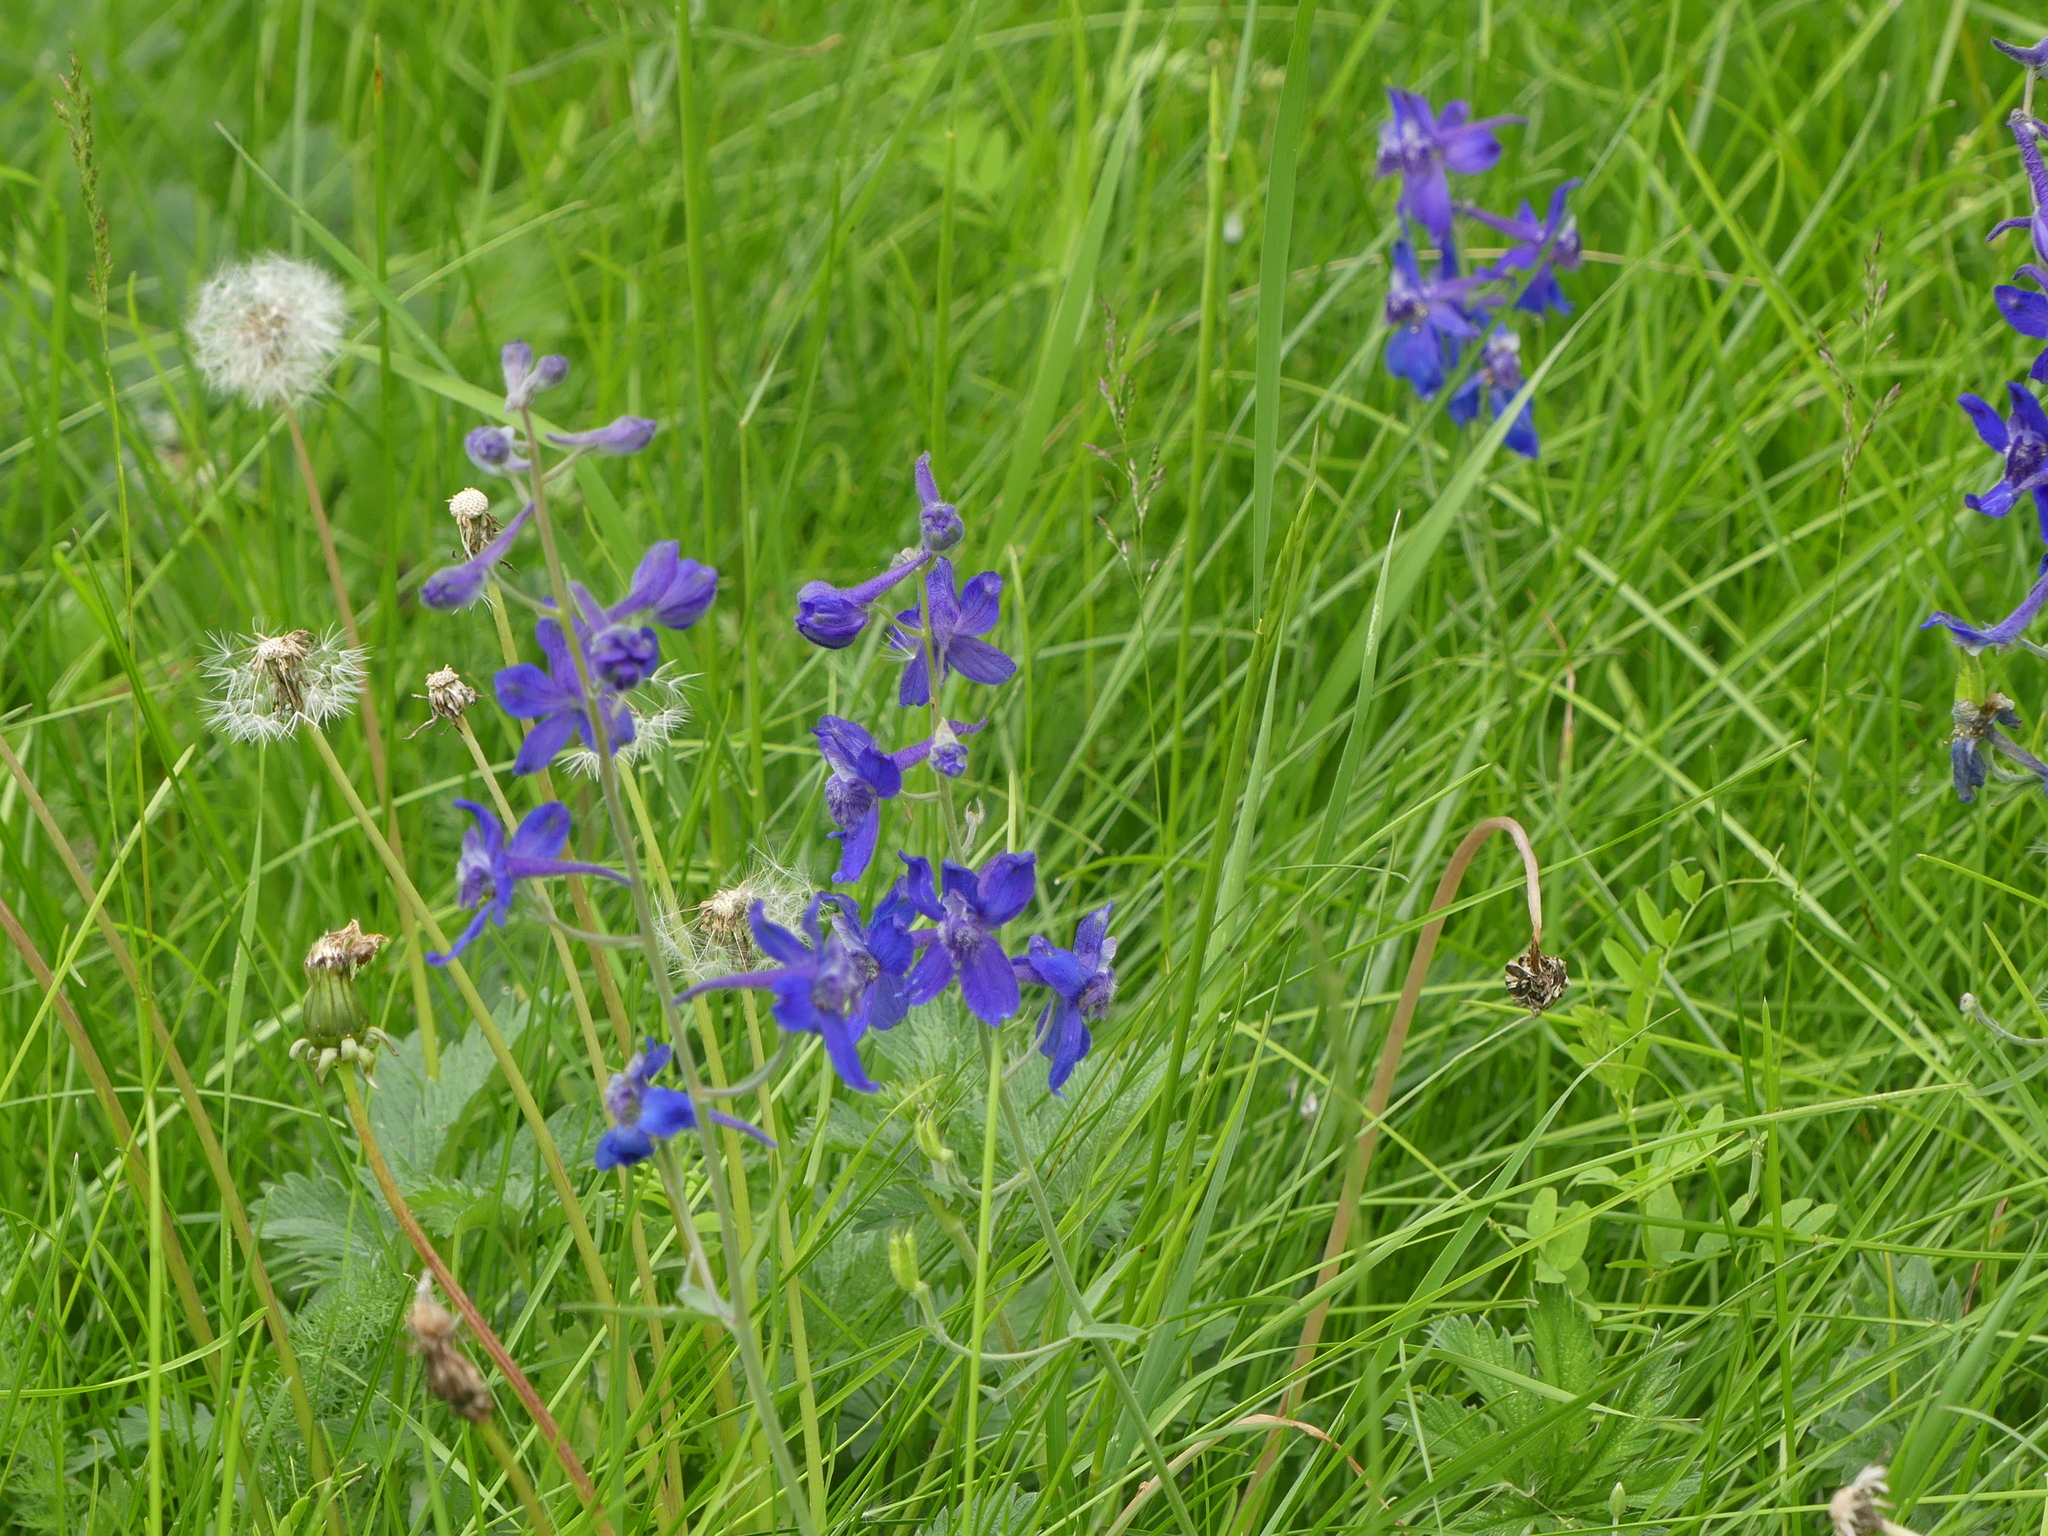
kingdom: Plantae
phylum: Tracheophyta
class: Magnoliopsida
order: Ranunculales
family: Ranunculaceae
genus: Delphinium
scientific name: Delphinium nuttallianum
